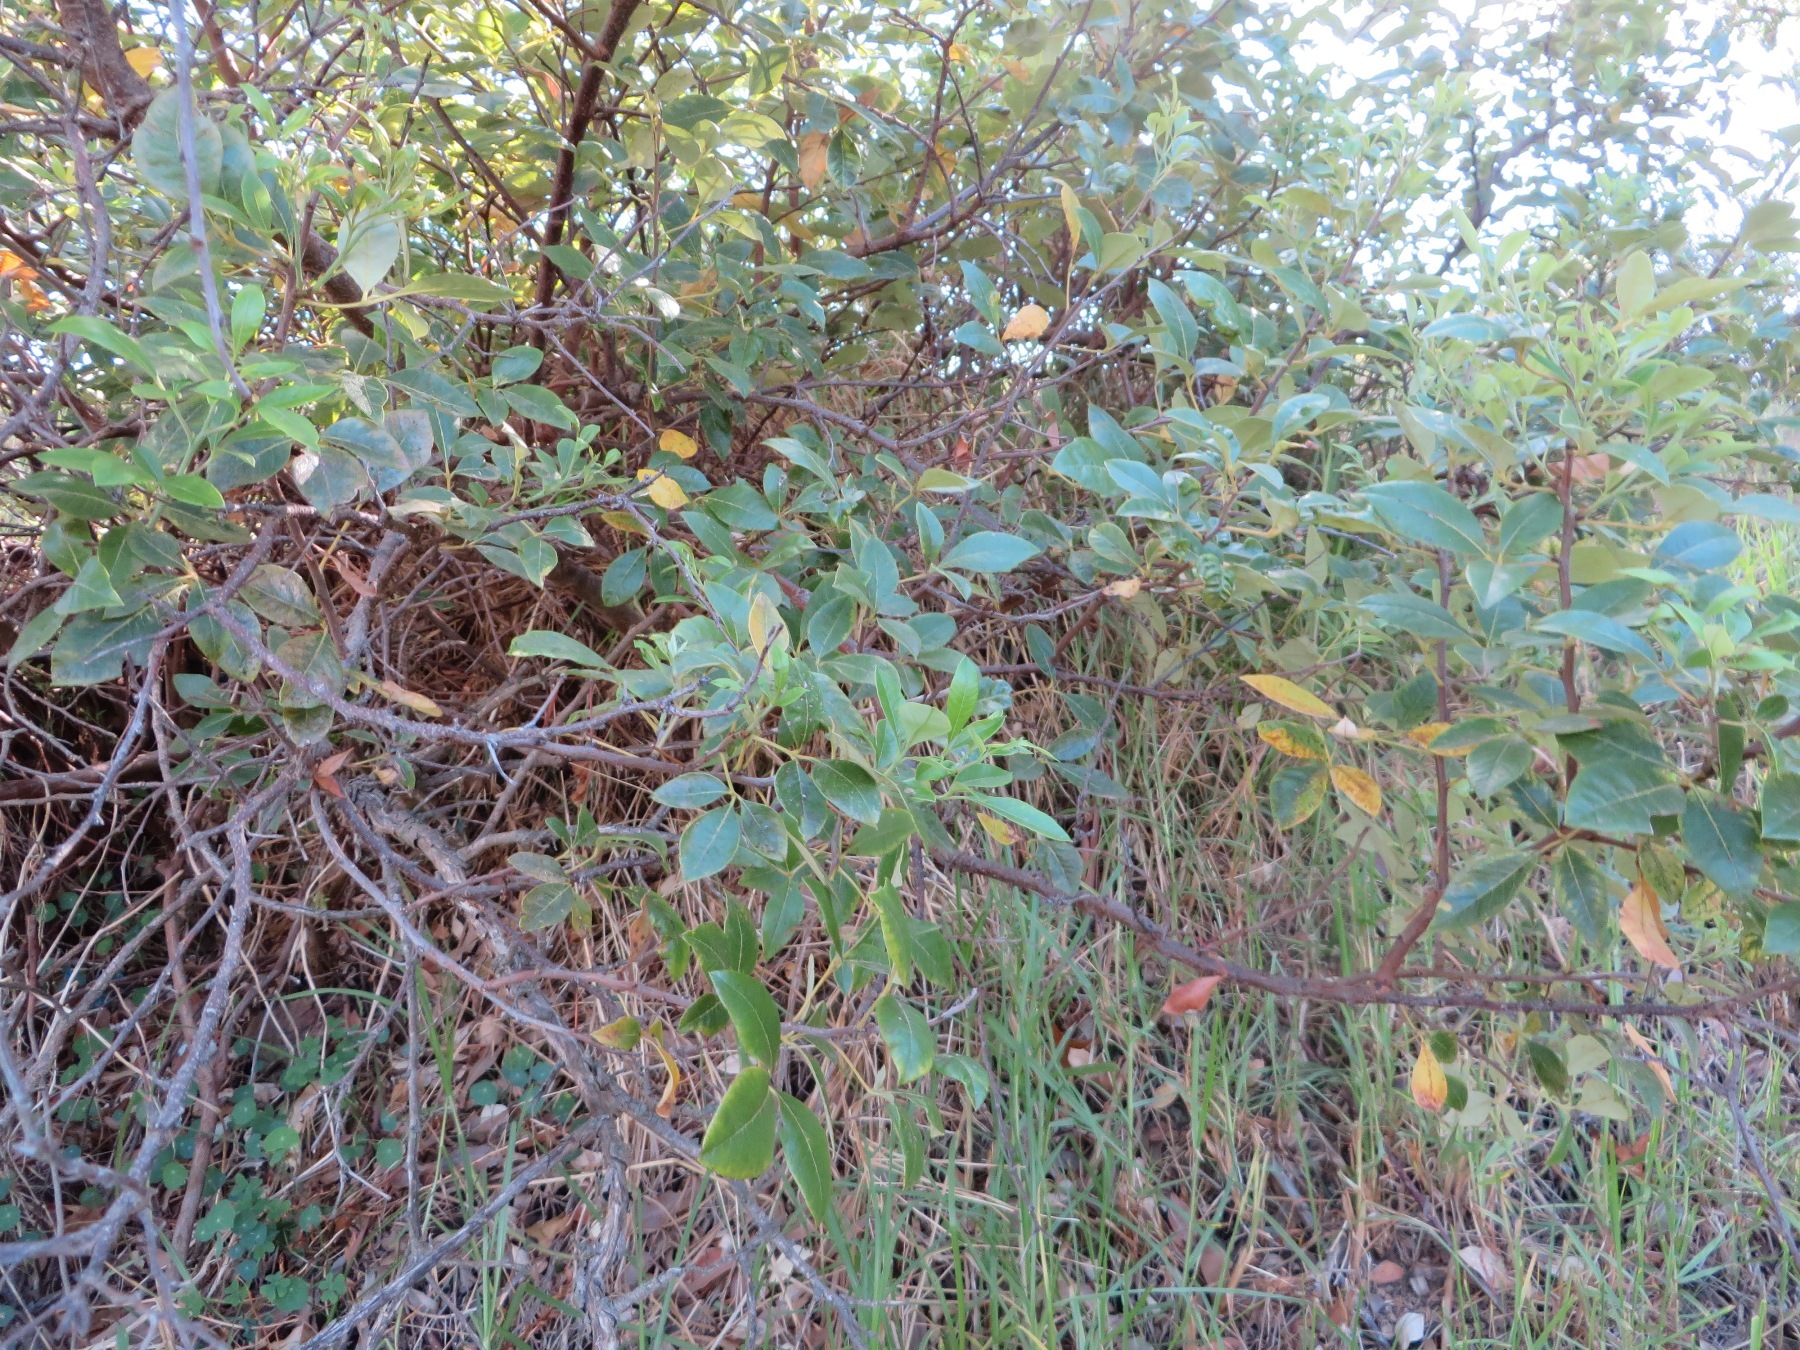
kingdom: Plantae
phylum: Tracheophyta
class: Magnoliopsida
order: Sapindales
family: Anacardiaceae
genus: Searsia
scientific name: Searsia tomentosa
